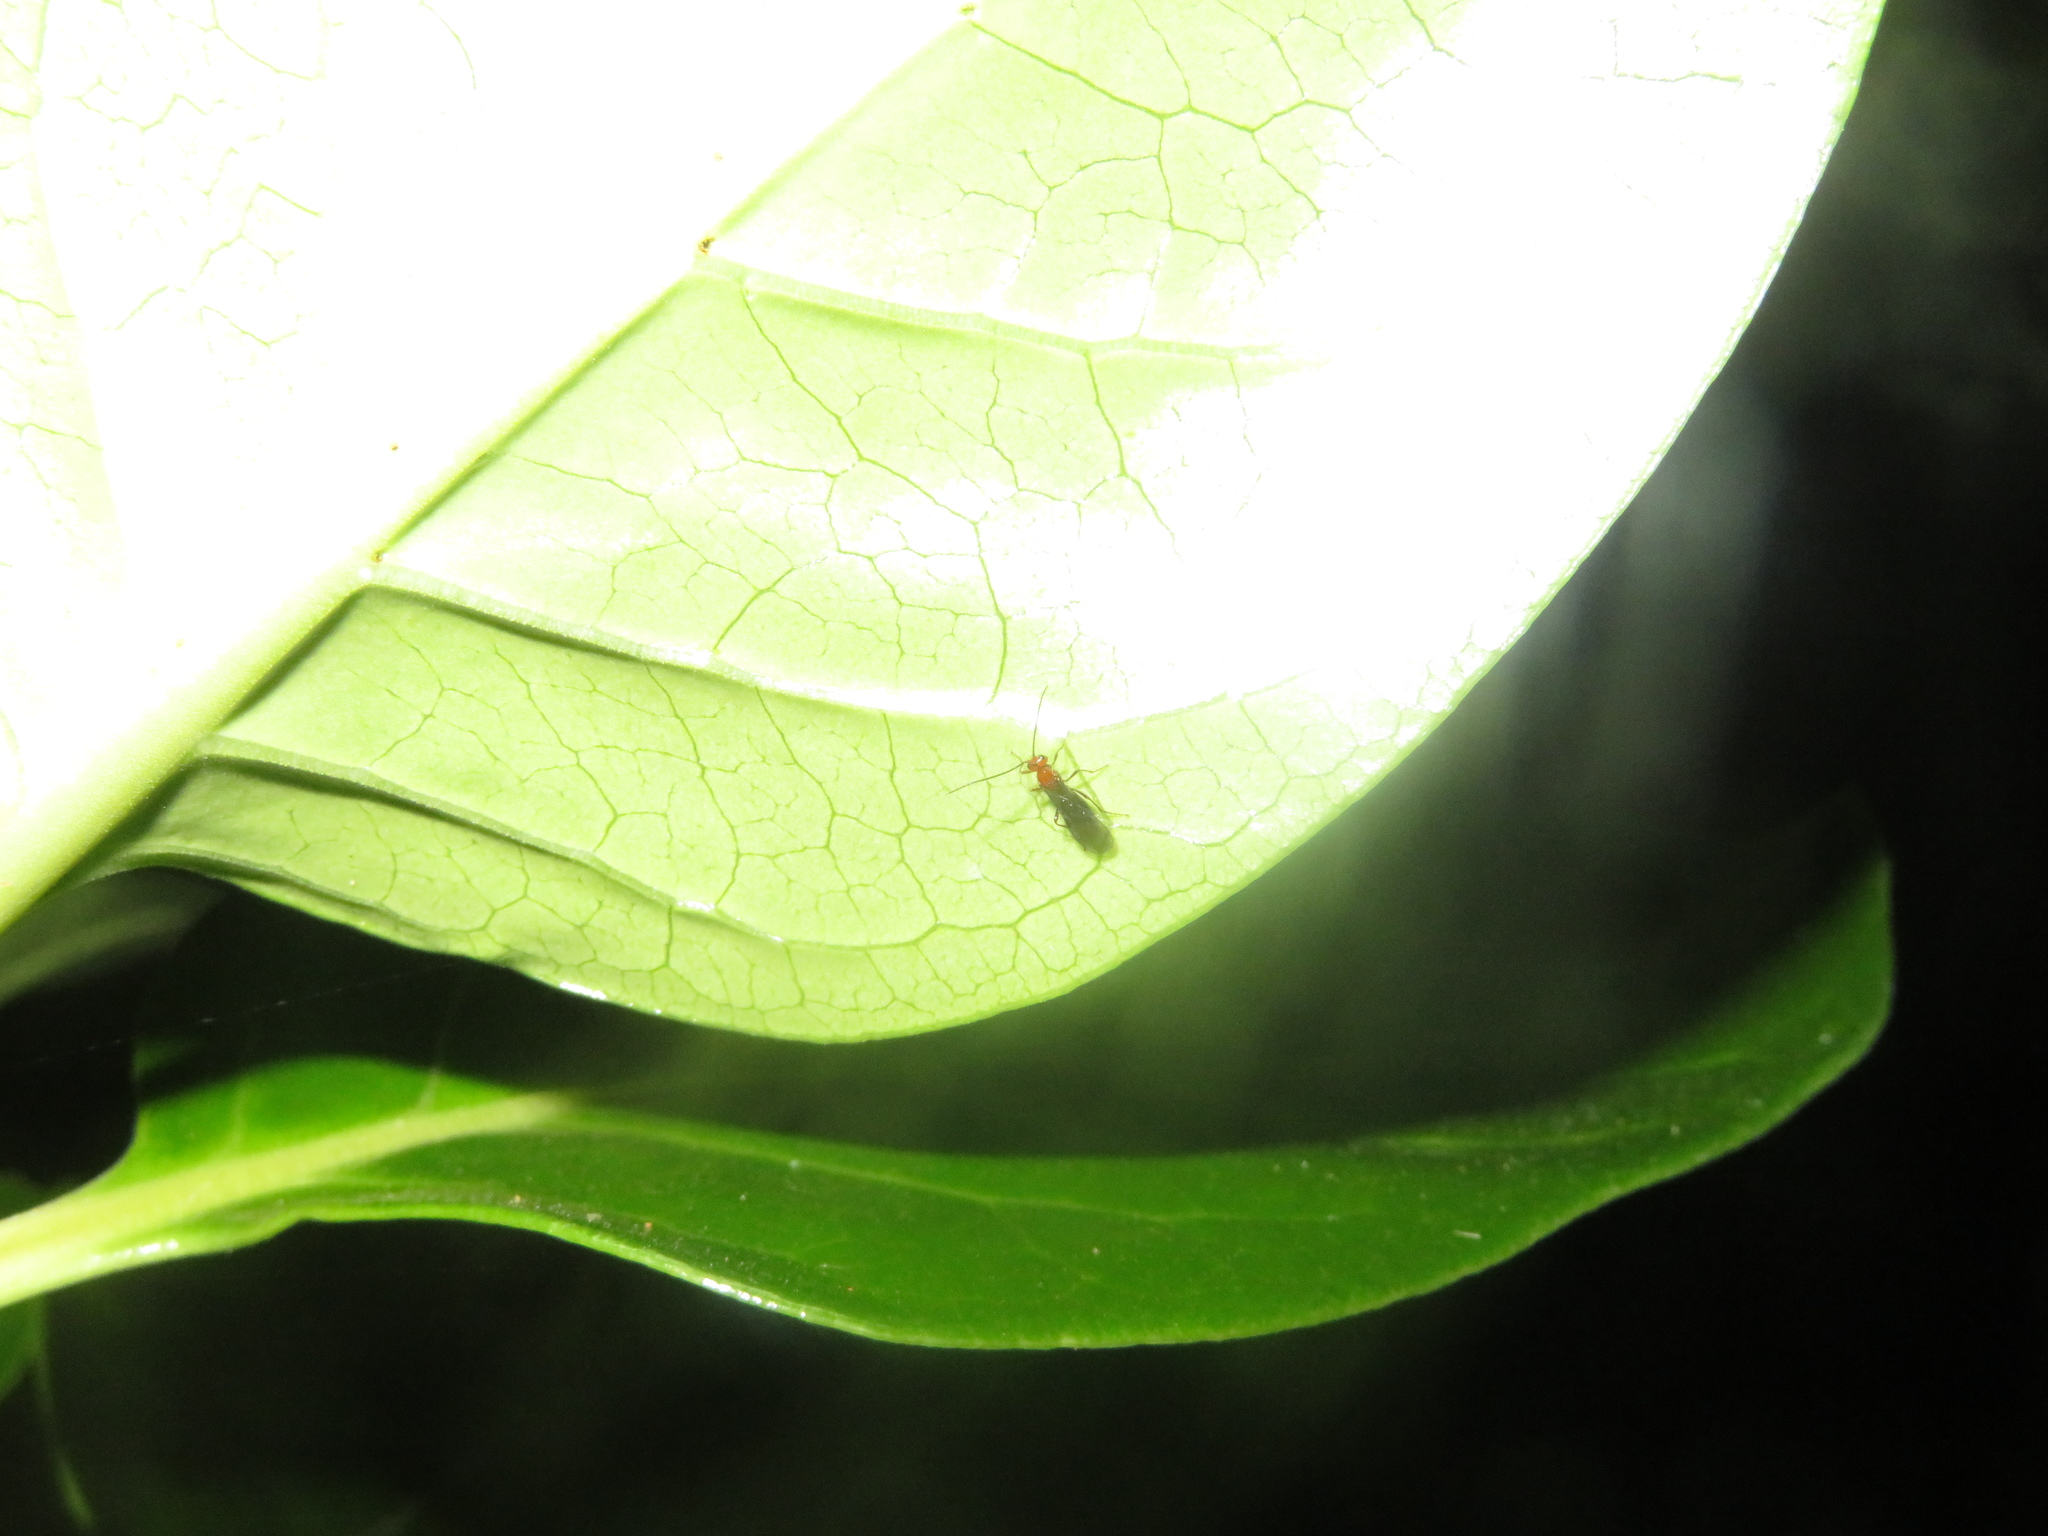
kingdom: Animalia
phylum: Arthropoda
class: Insecta
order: Hymenoptera
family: Braconidae
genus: Asobara
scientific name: Asobara antipoda
